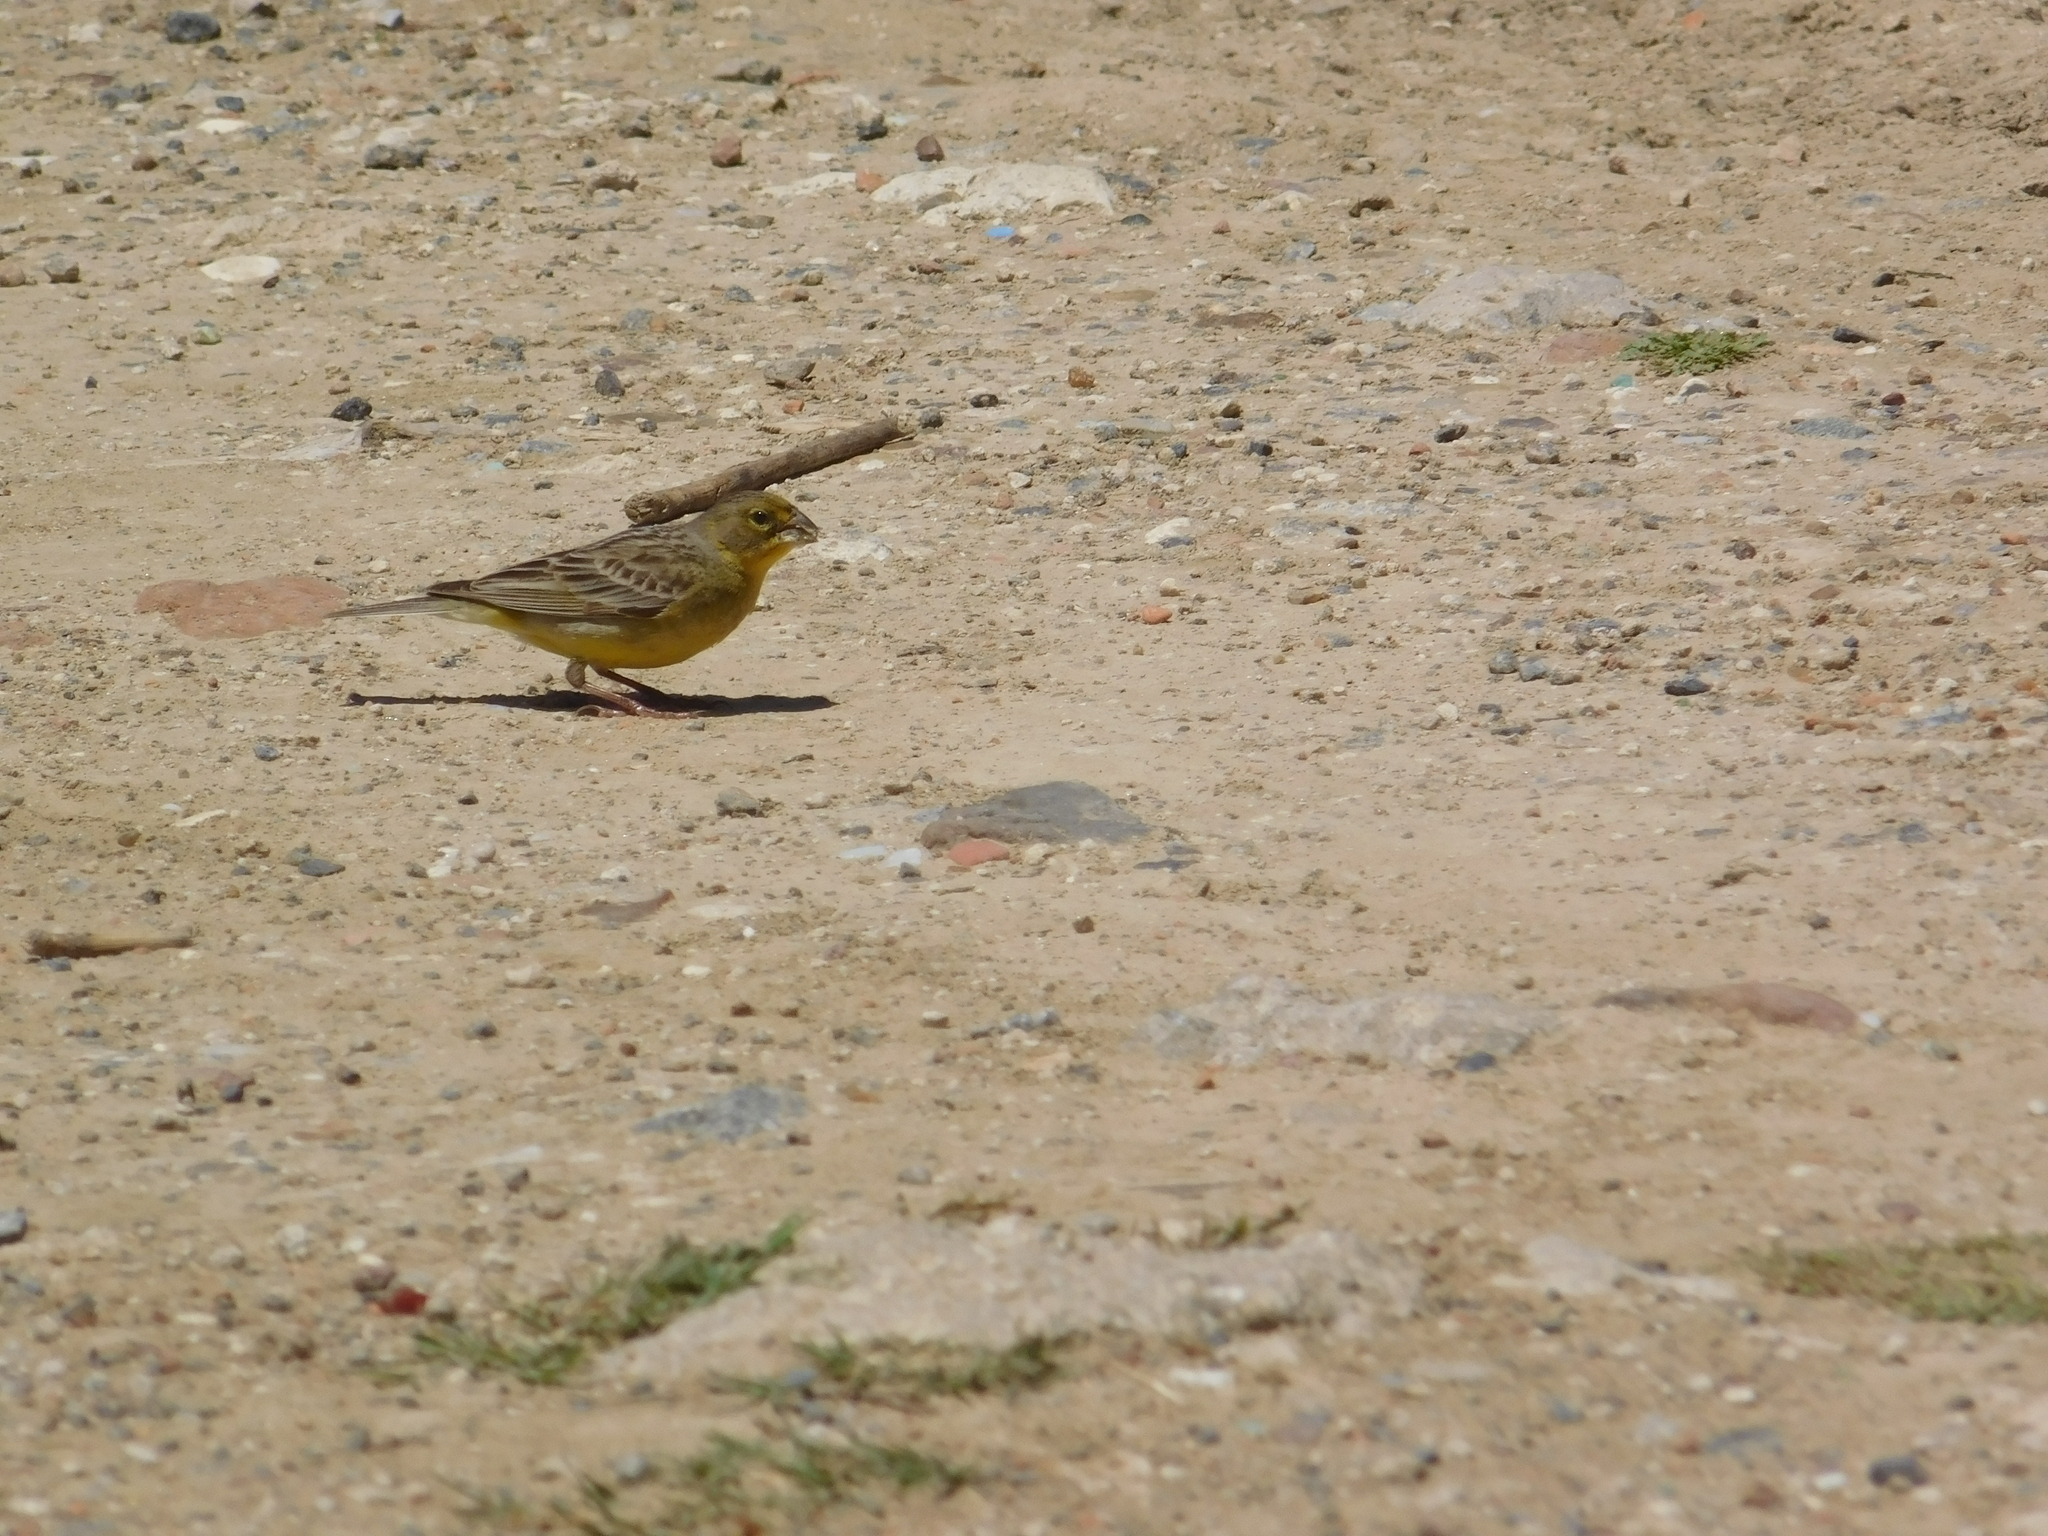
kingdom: Animalia
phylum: Chordata
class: Aves
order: Passeriformes
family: Thraupidae
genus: Sicalis
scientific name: Sicalis luteola
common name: Grassland yellow-finch
